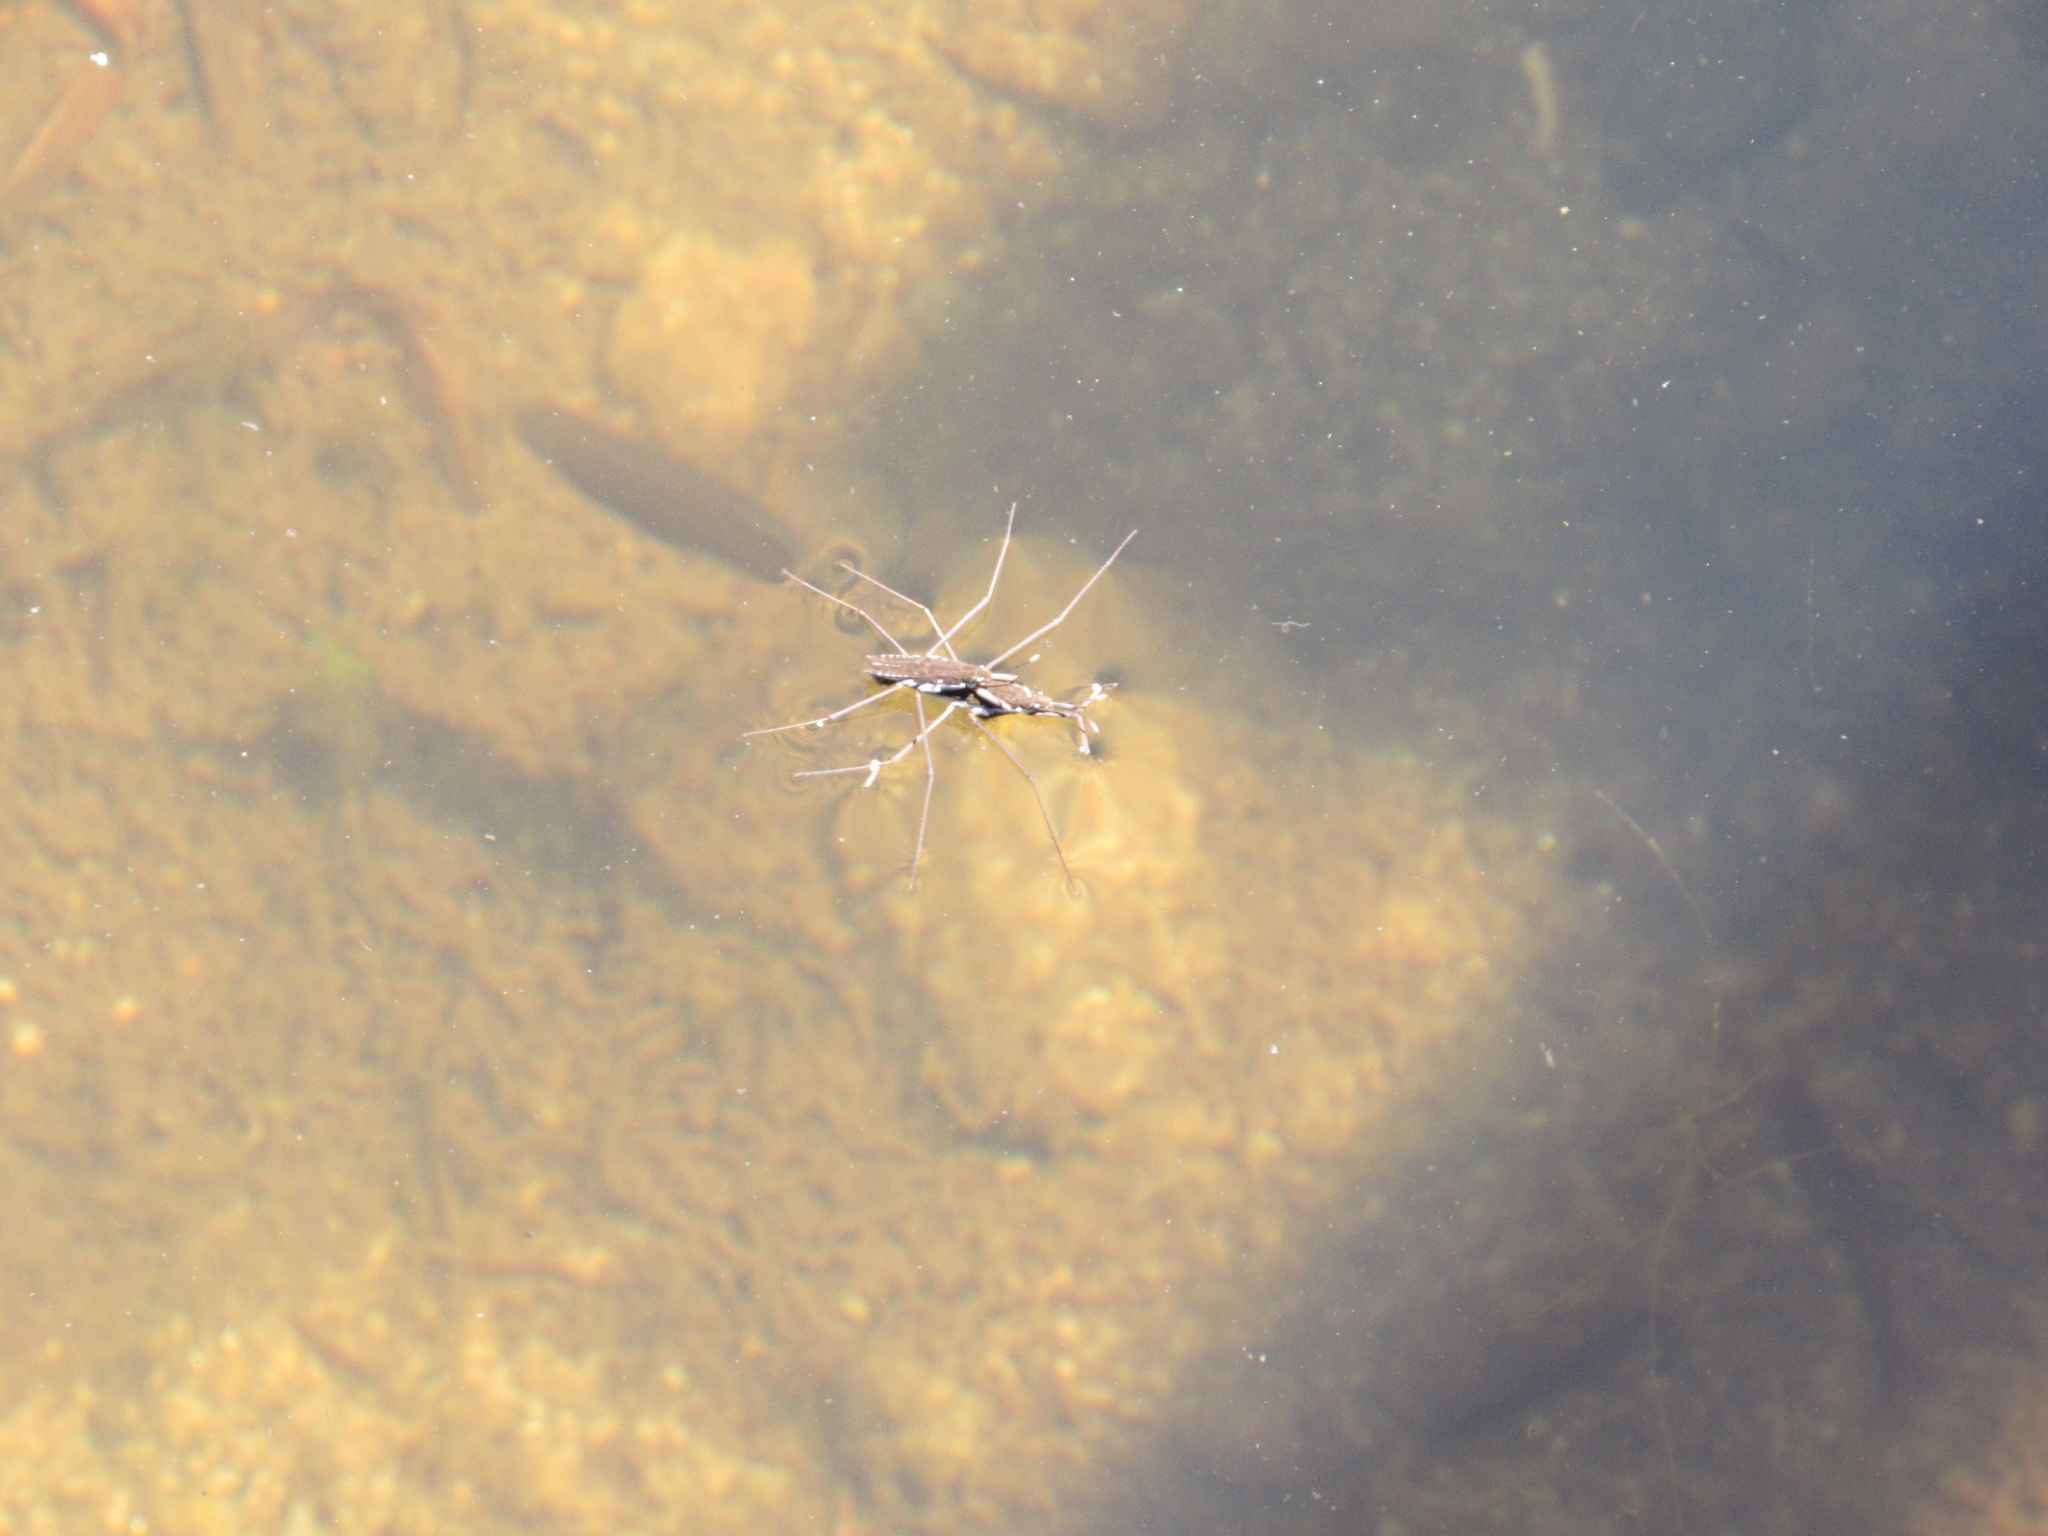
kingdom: Animalia
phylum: Arthropoda
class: Insecta
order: Hemiptera
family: Gerridae
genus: Aquarius
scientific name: Aquarius remigis
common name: Common water strider
